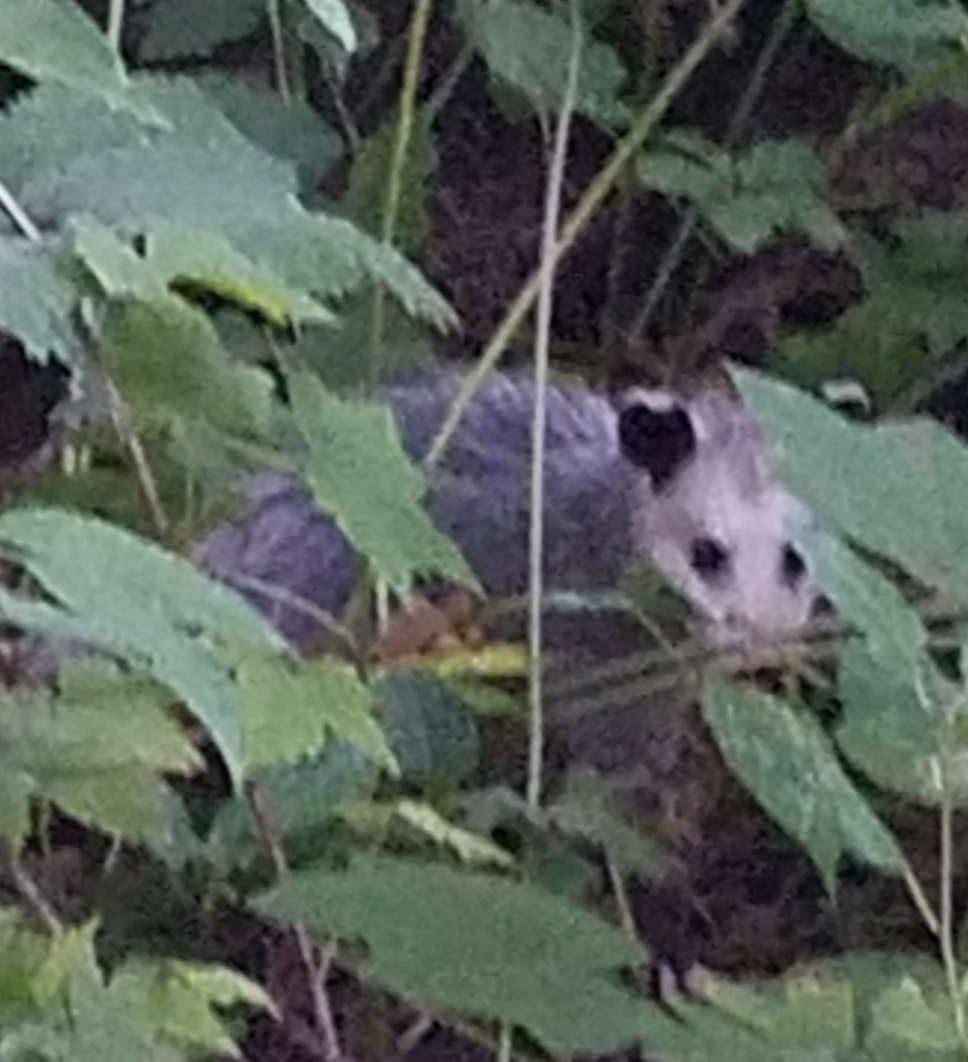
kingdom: Animalia
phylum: Chordata
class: Mammalia
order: Didelphimorphia
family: Didelphidae
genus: Didelphis
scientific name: Didelphis virginiana
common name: Virginia opossum
